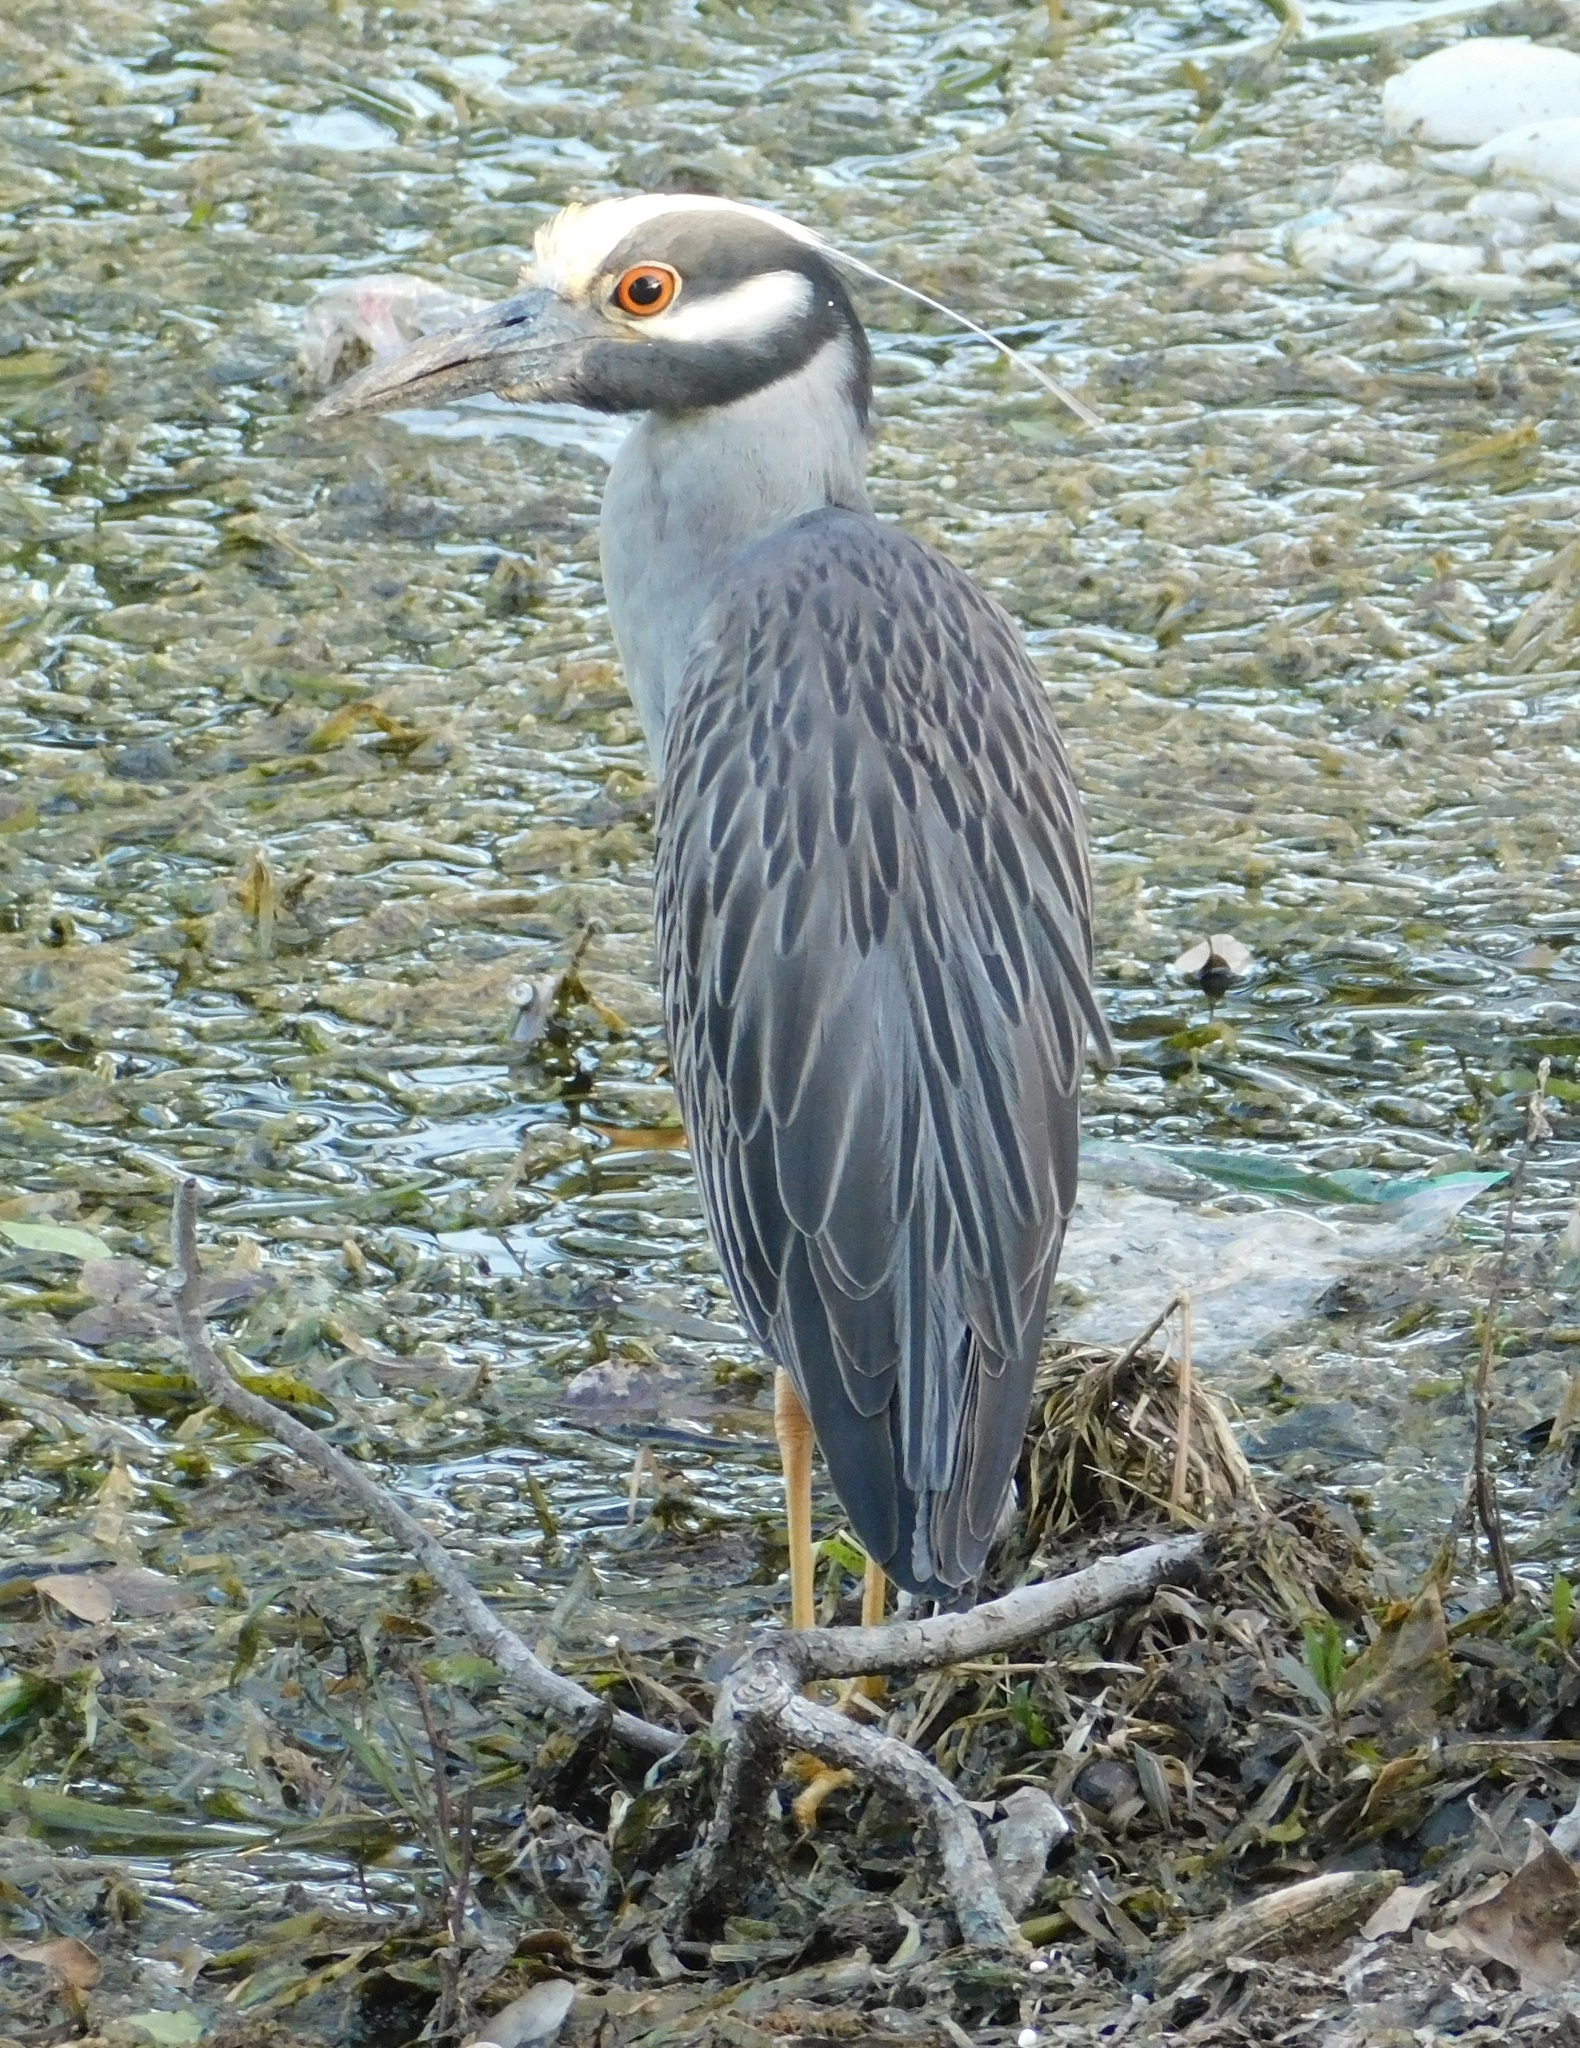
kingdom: Animalia
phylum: Chordata
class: Aves
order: Pelecaniformes
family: Ardeidae
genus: Nyctanassa
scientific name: Nyctanassa violacea
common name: Yellow-crowned night heron
